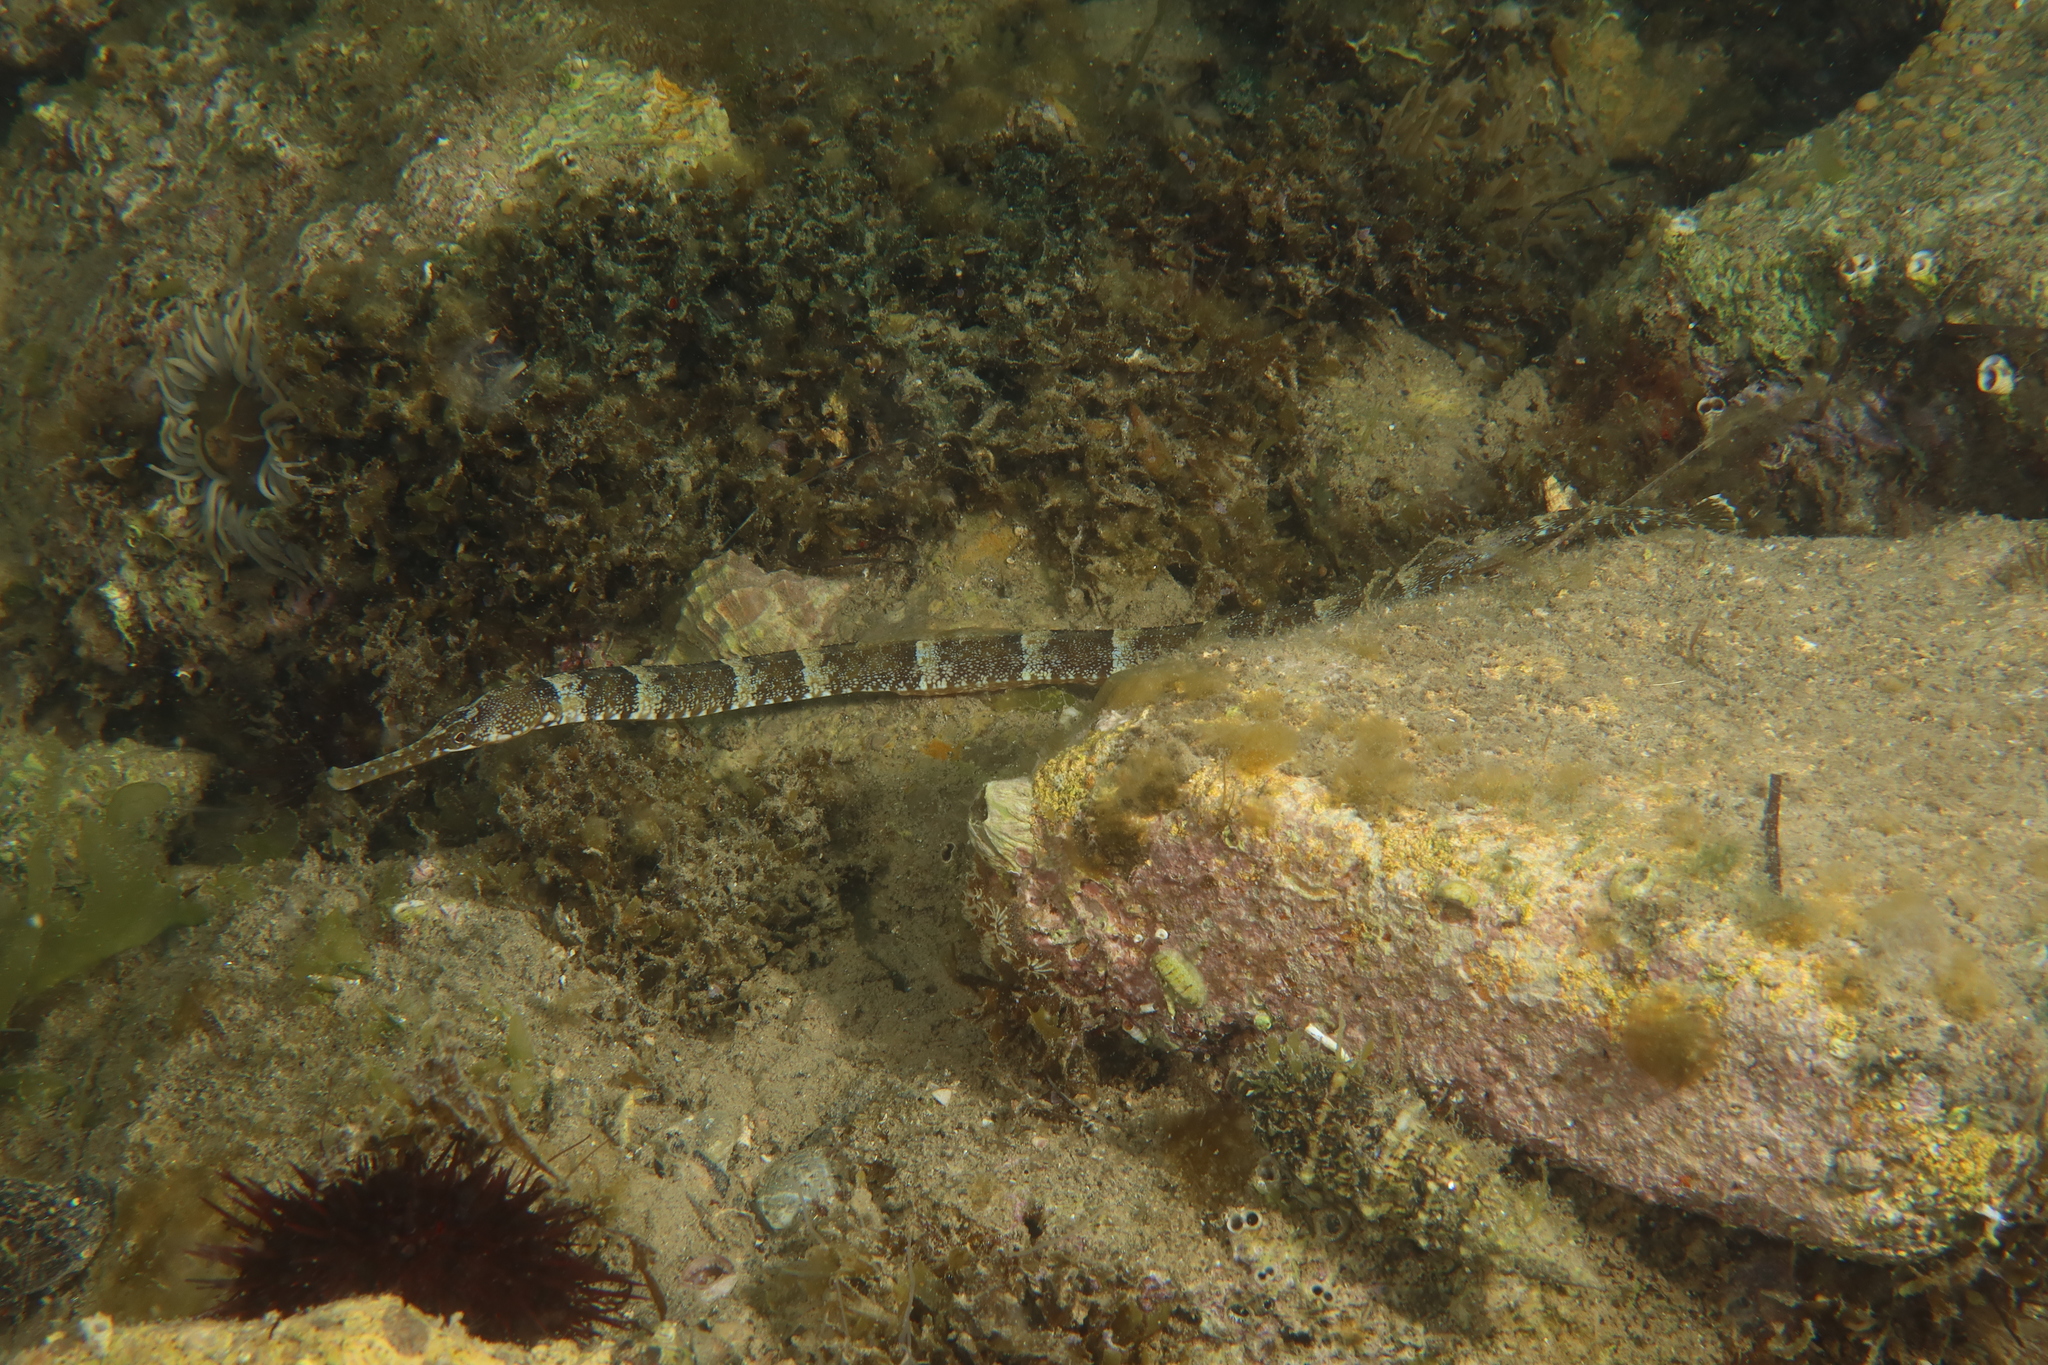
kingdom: Animalia
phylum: Chordata
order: Syngnathiformes
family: Syngnathidae
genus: Syngnathus
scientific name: Syngnathus tenuirostris
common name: Narrow-snouted pipefish
